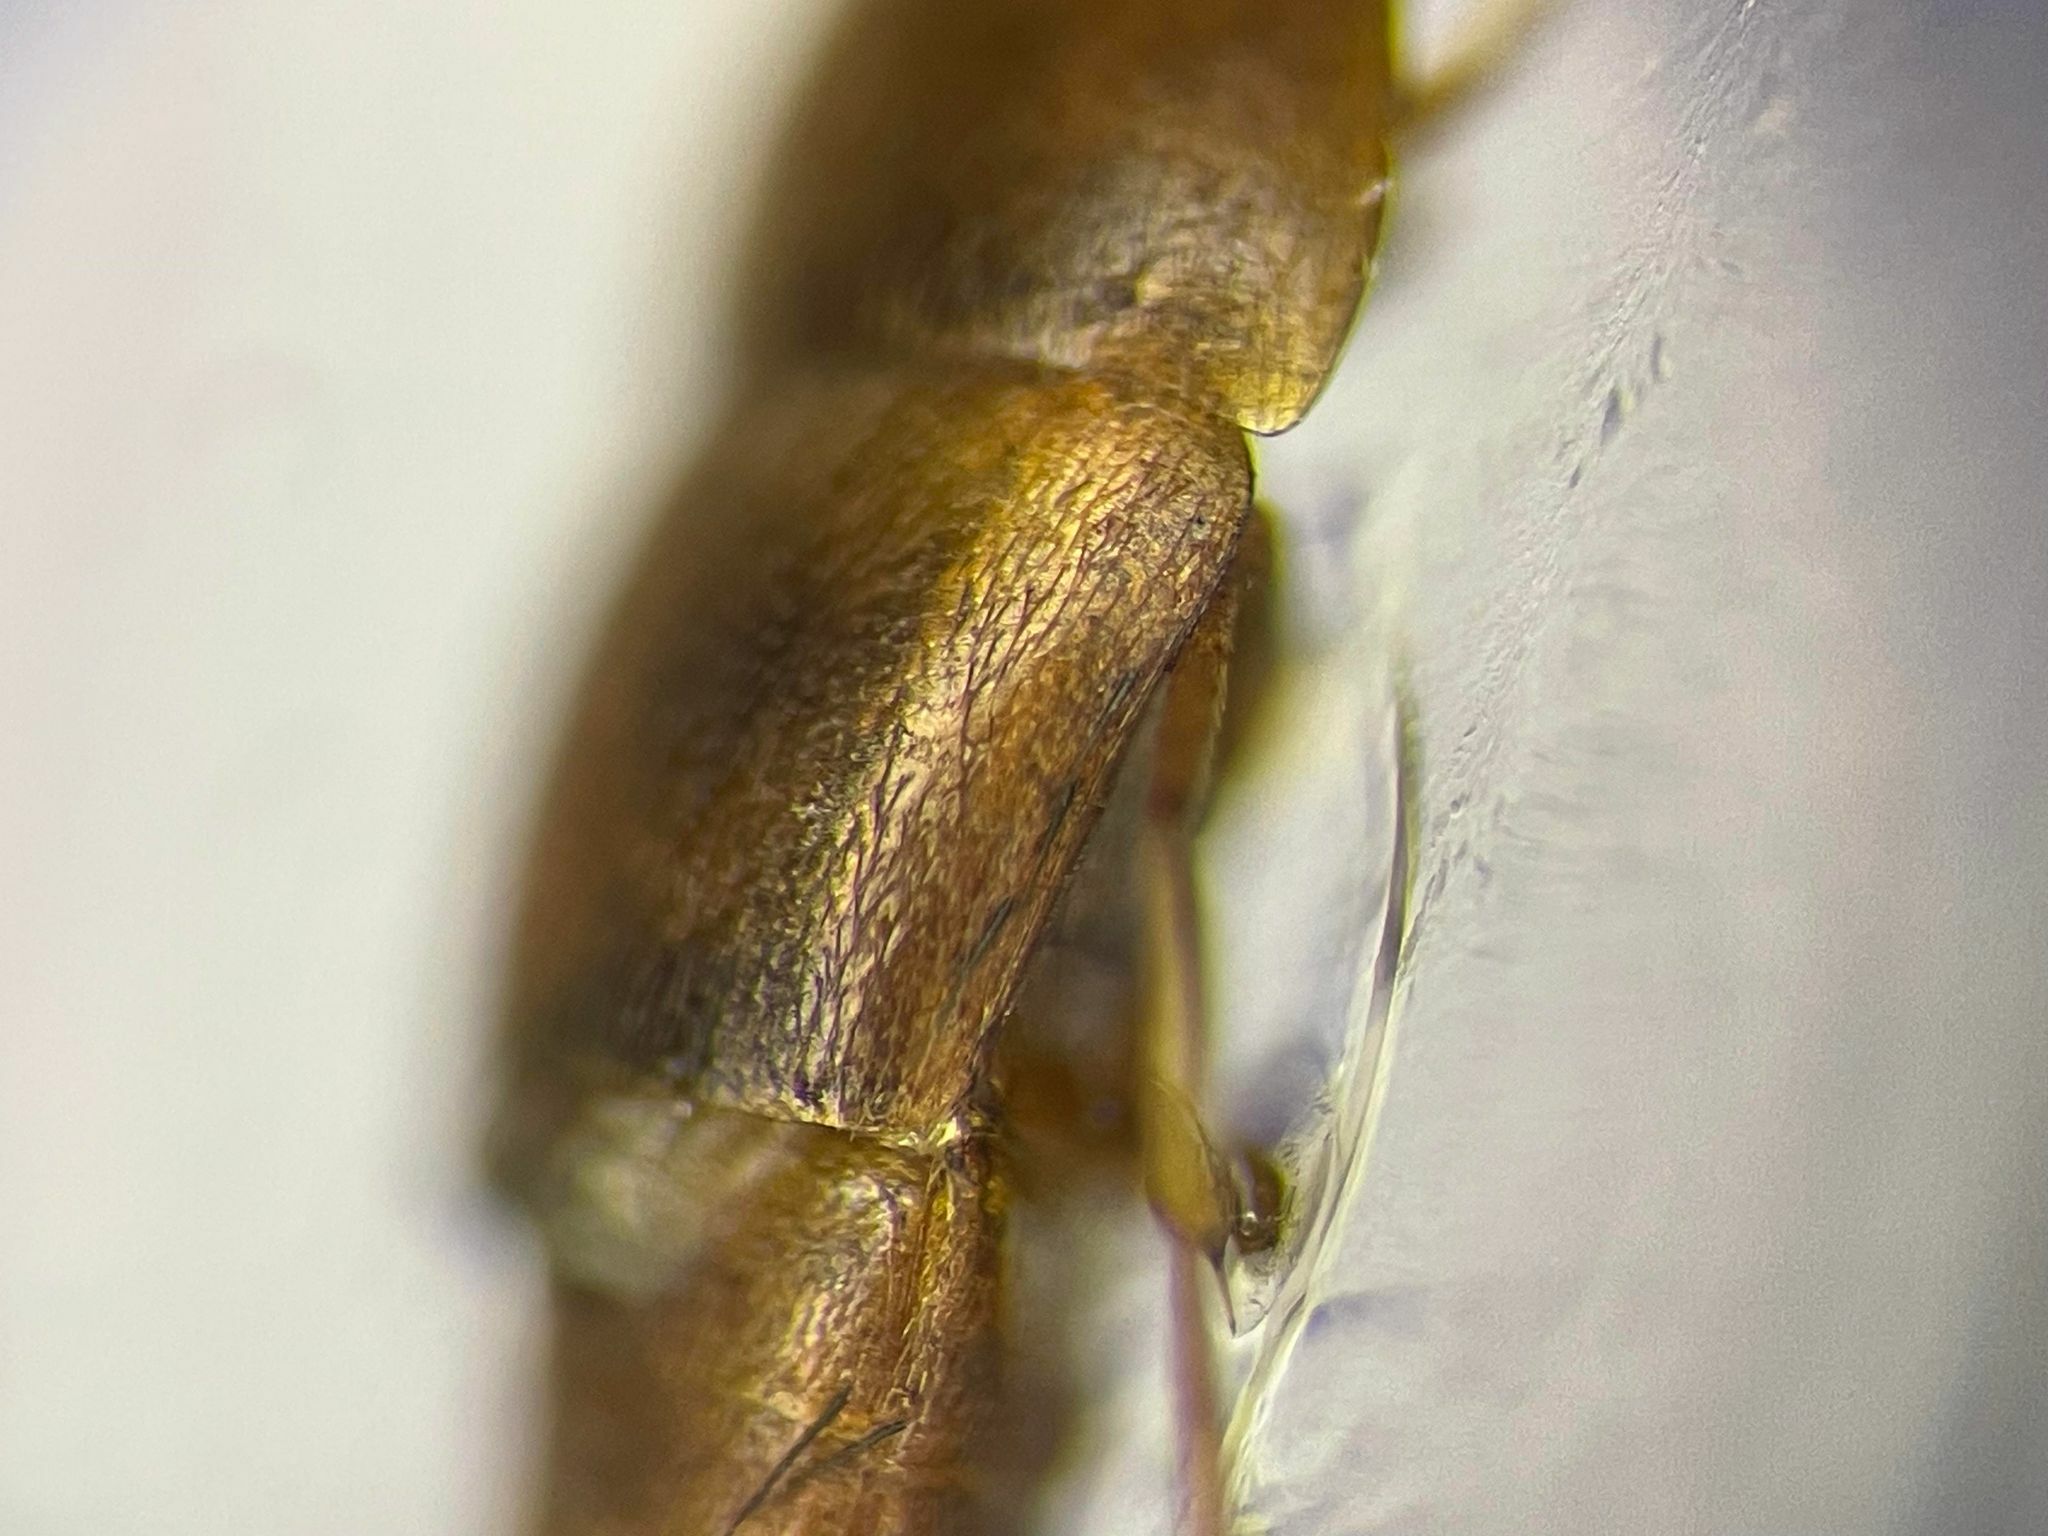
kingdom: Animalia
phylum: Arthropoda
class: Insecta
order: Coleoptera
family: Staphylinidae
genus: Sepedophilus
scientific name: Sepedophilus scriptus
